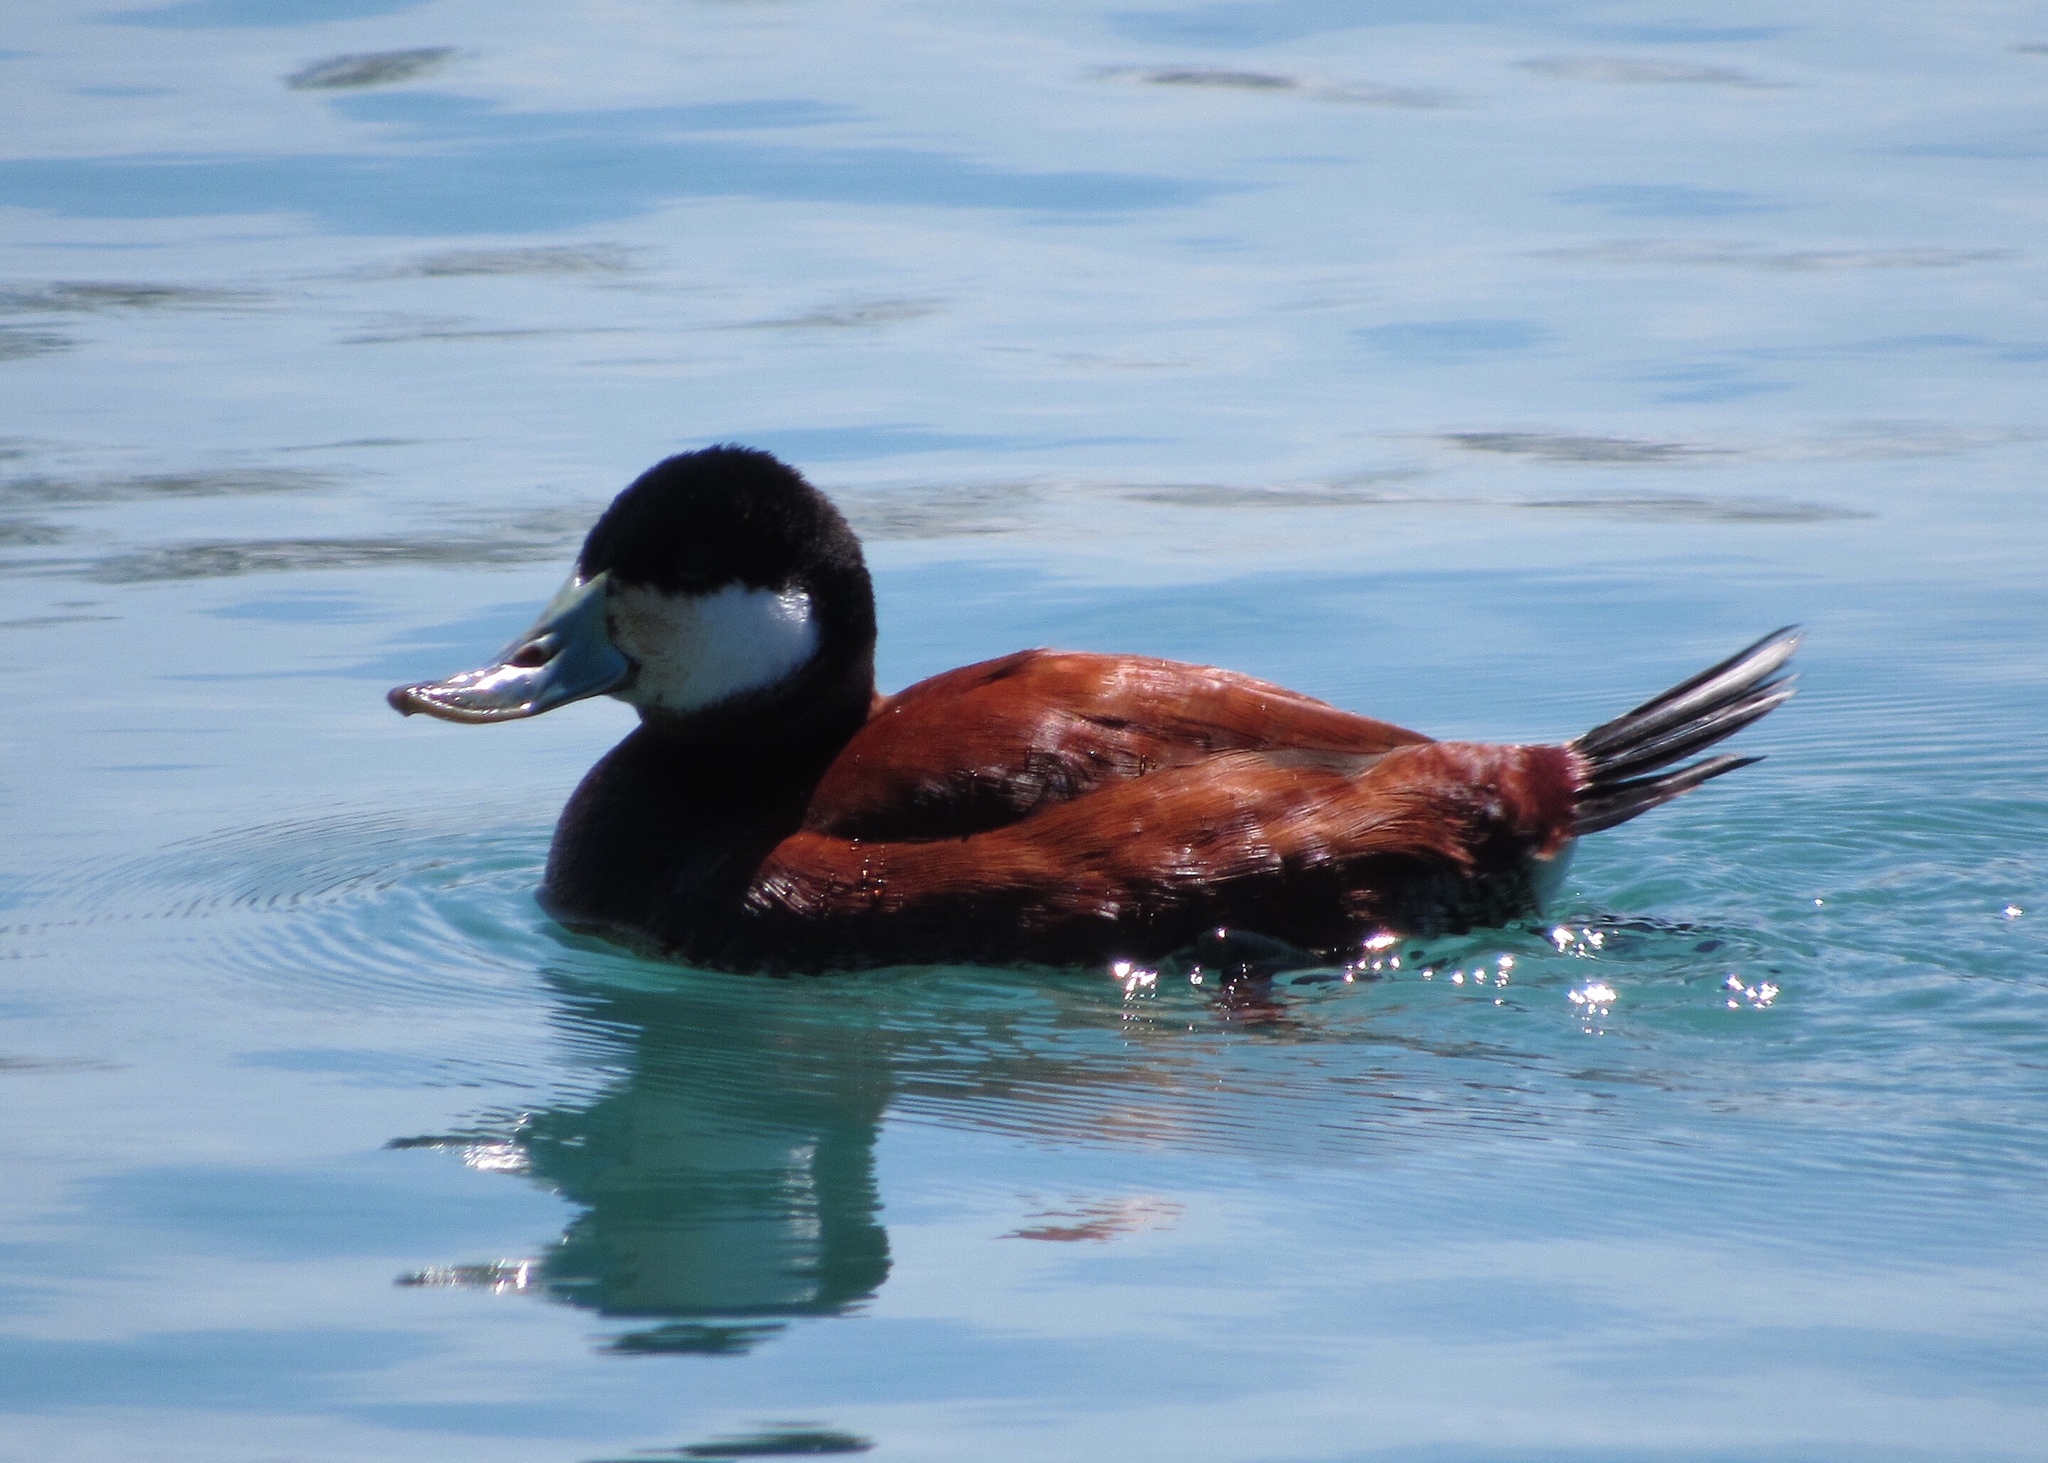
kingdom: Animalia
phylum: Chordata
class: Aves
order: Anseriformes
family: Anatidae
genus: Oxyura
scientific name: Oxyura jamaicensis
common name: Ruddy duck
